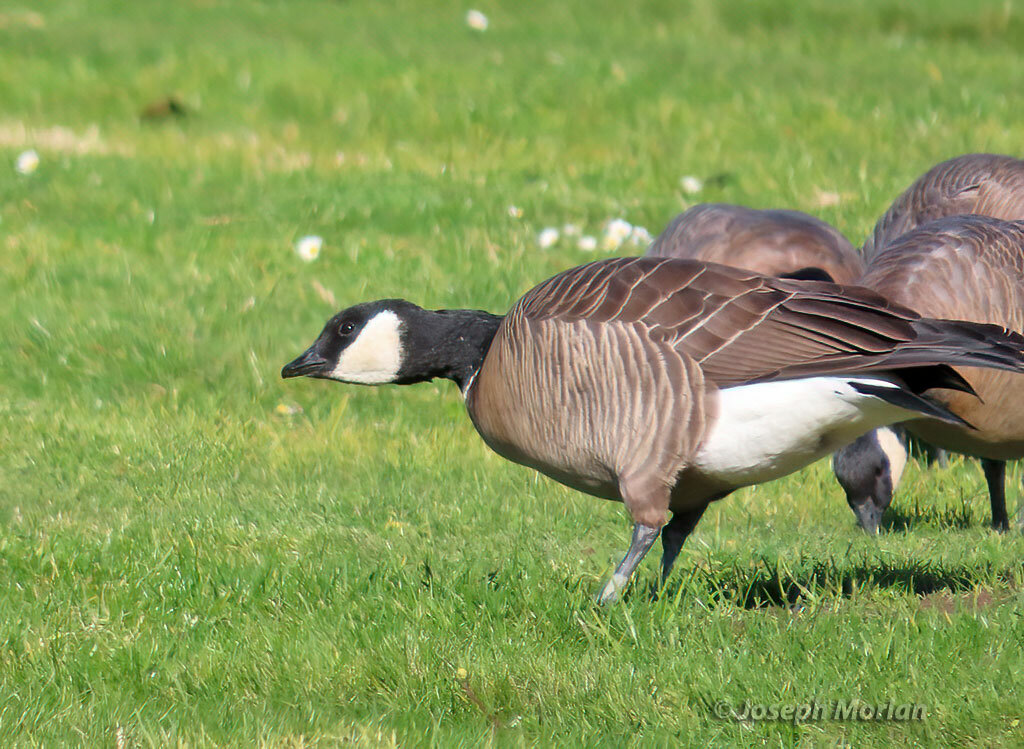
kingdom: Animalia
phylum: Chordata
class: Aves
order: Anseriformes
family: Anatidae
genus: Branta
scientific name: Branta hutchinsii
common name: Cackling goose
